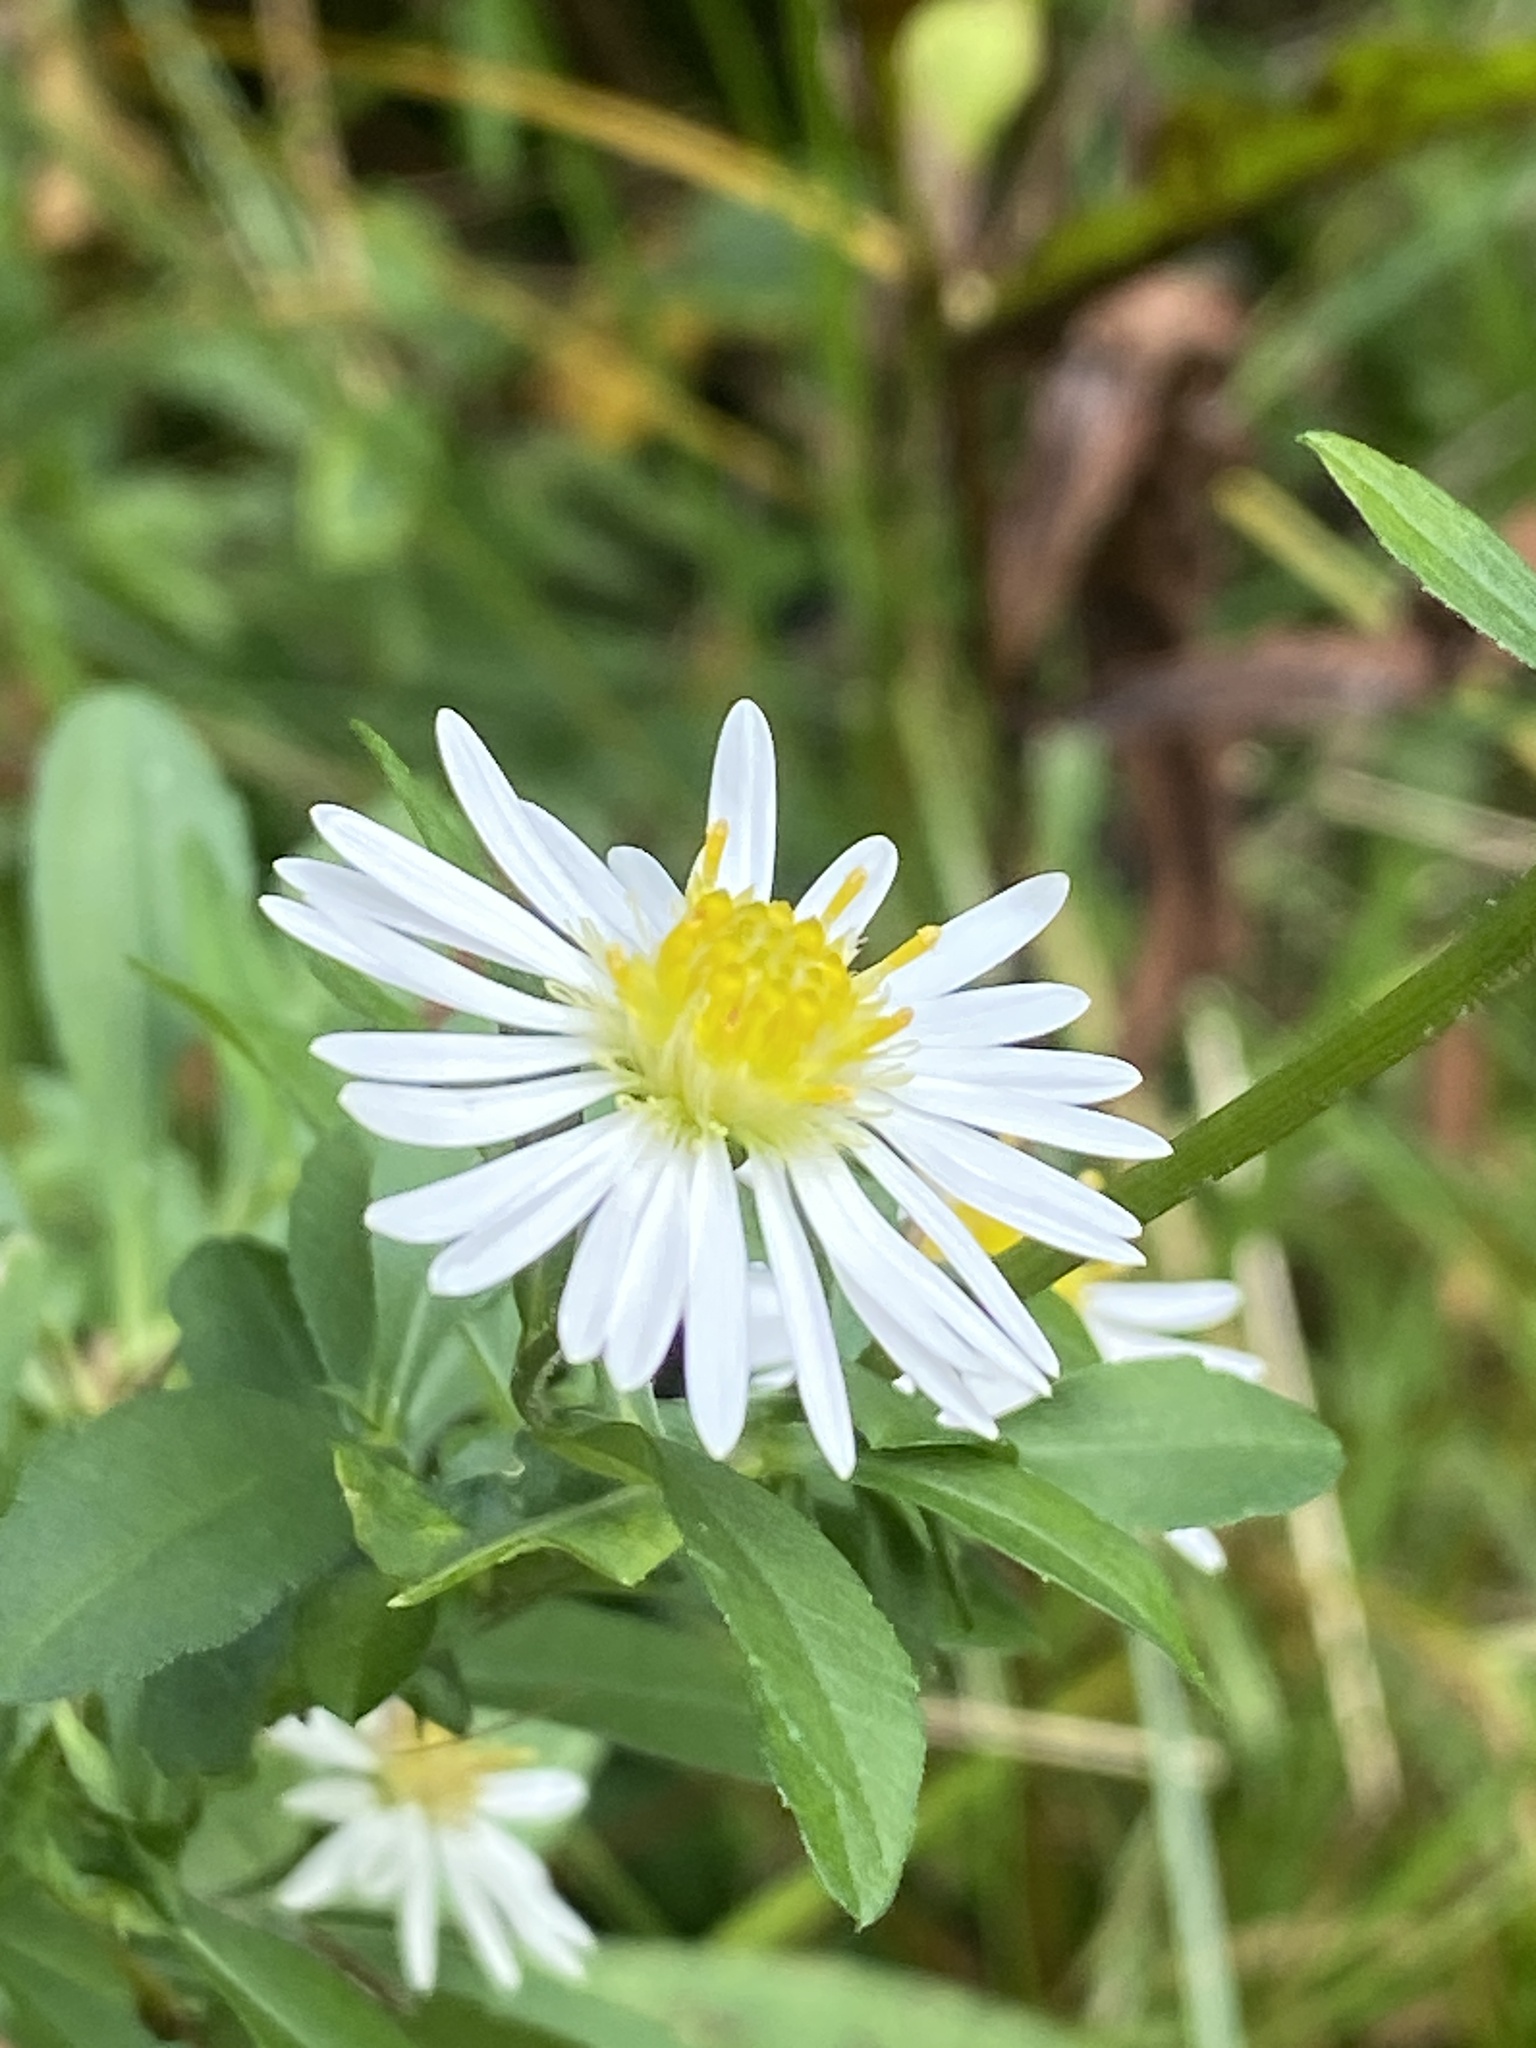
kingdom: Plantae
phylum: Tracheophyta
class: Magnoliopsida
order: Asterales
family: Asteraceae
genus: Symphyotrichum
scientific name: Symphyotrichum lanceolatum
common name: Panicled aster
